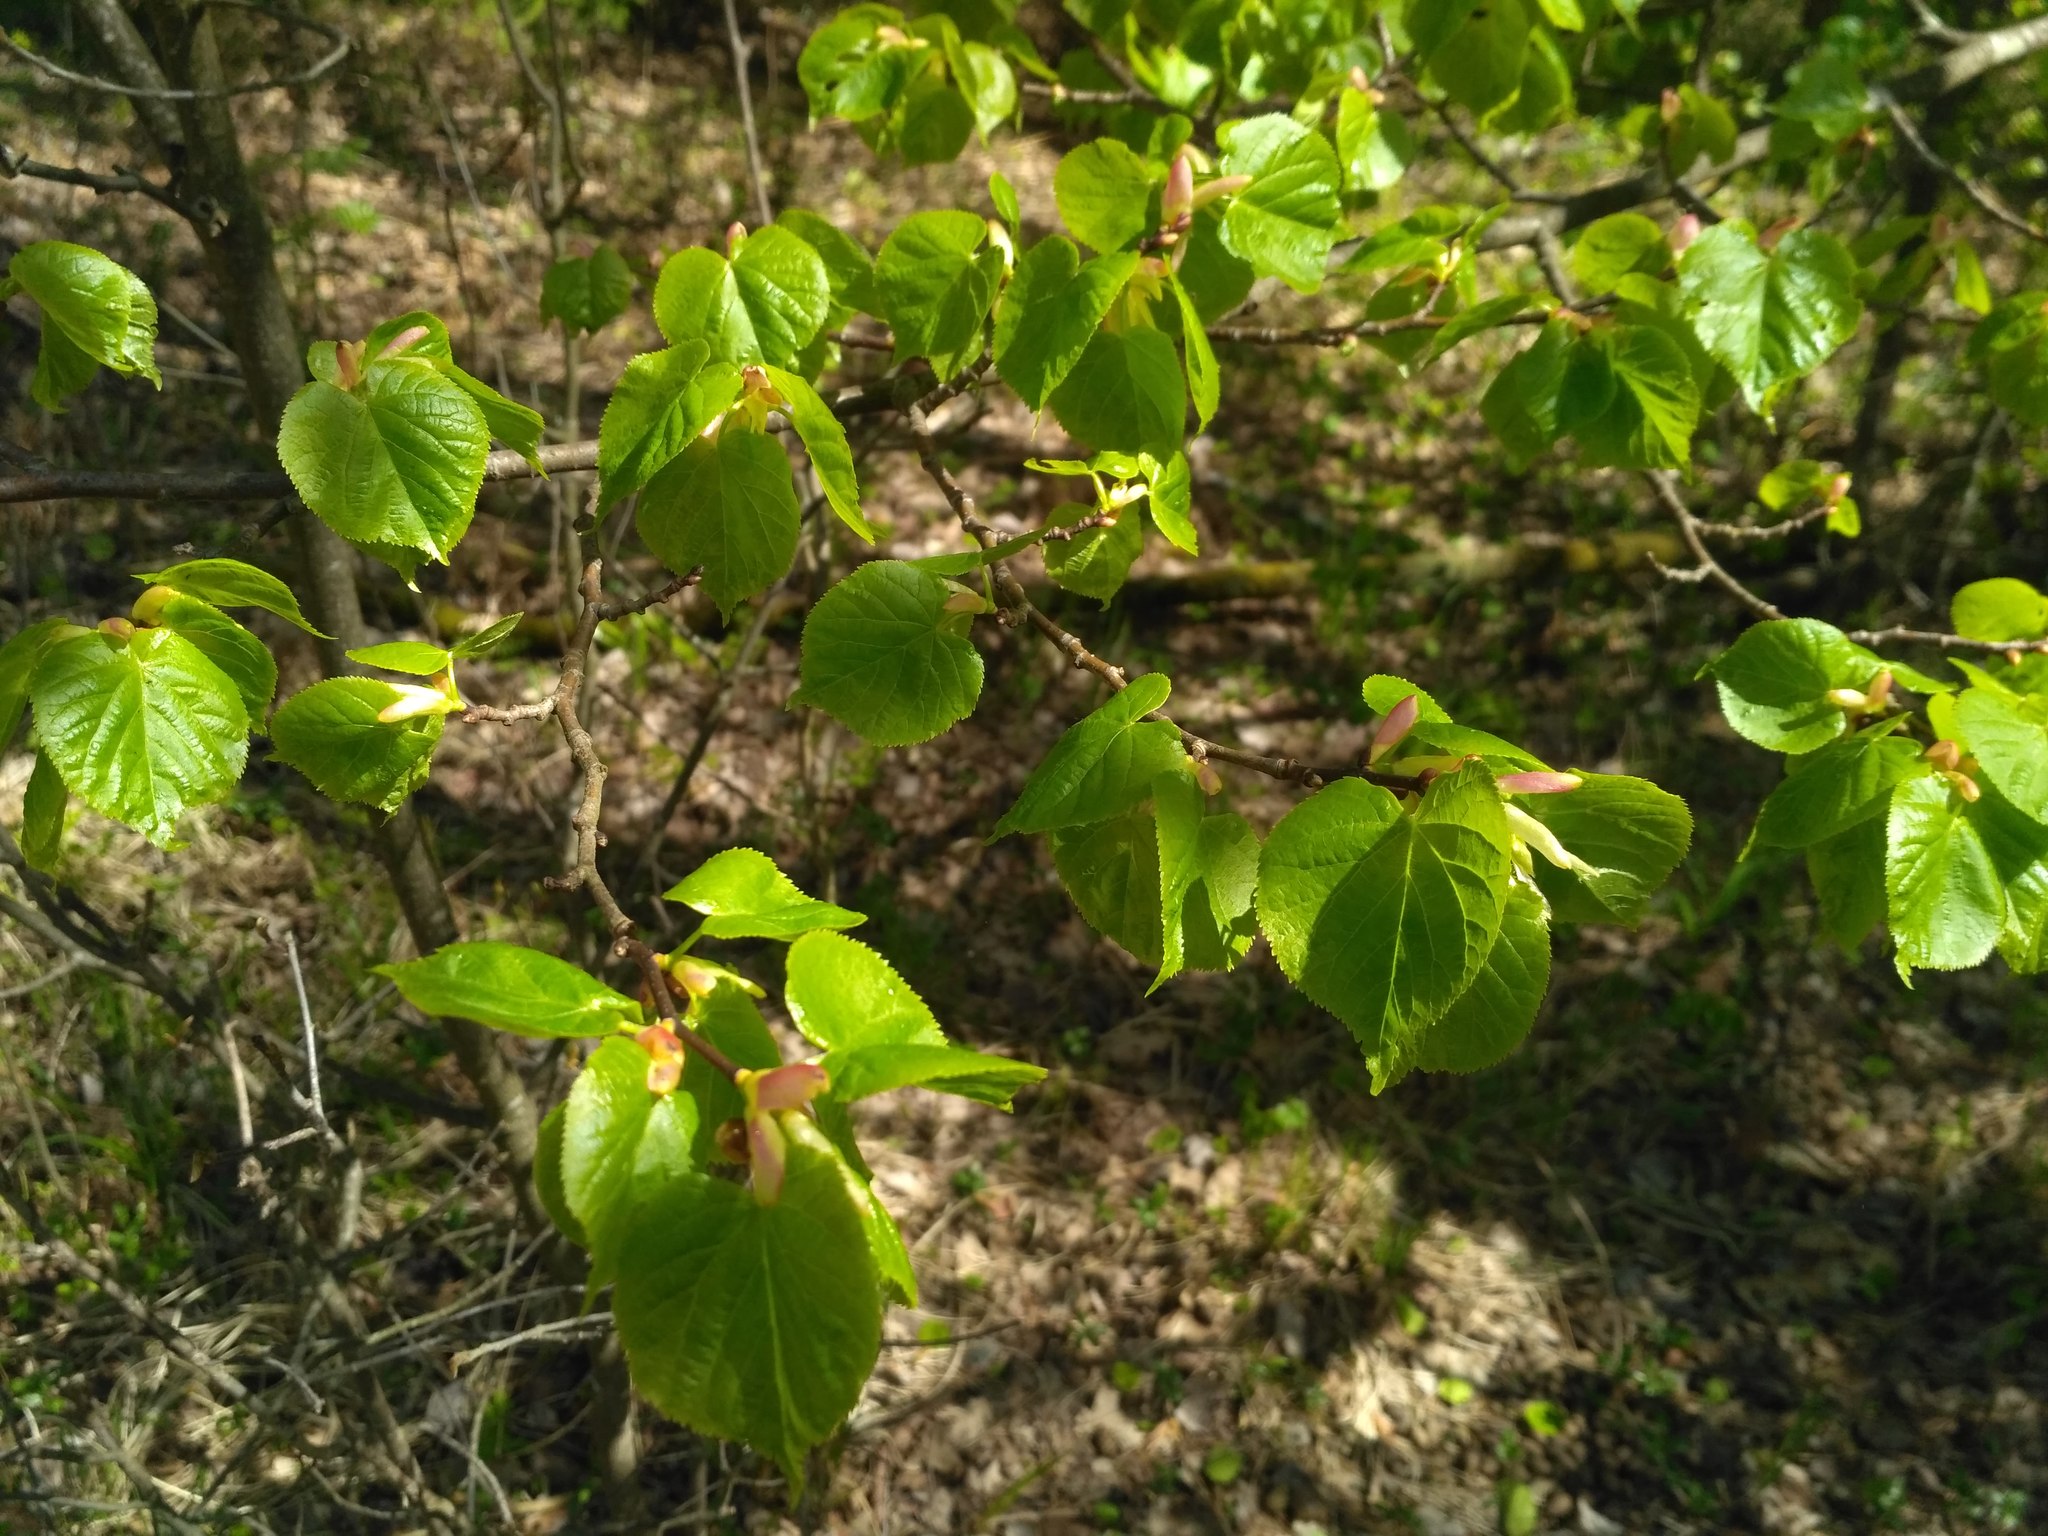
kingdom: Plantae
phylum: Tracheophyta
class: Magnoliopsida
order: Malvales
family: Malvaceae
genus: Tilia
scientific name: Tilia cordata
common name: Small-leaved lime
